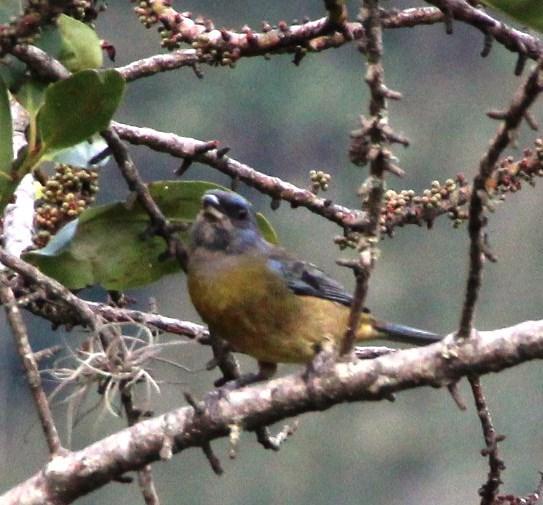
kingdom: Animalia
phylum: Chordata
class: Aves
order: Passeriformes
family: Thraupidae
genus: Rauenia
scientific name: Rauenia bonariensis
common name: Blue-and-yellow tanager
